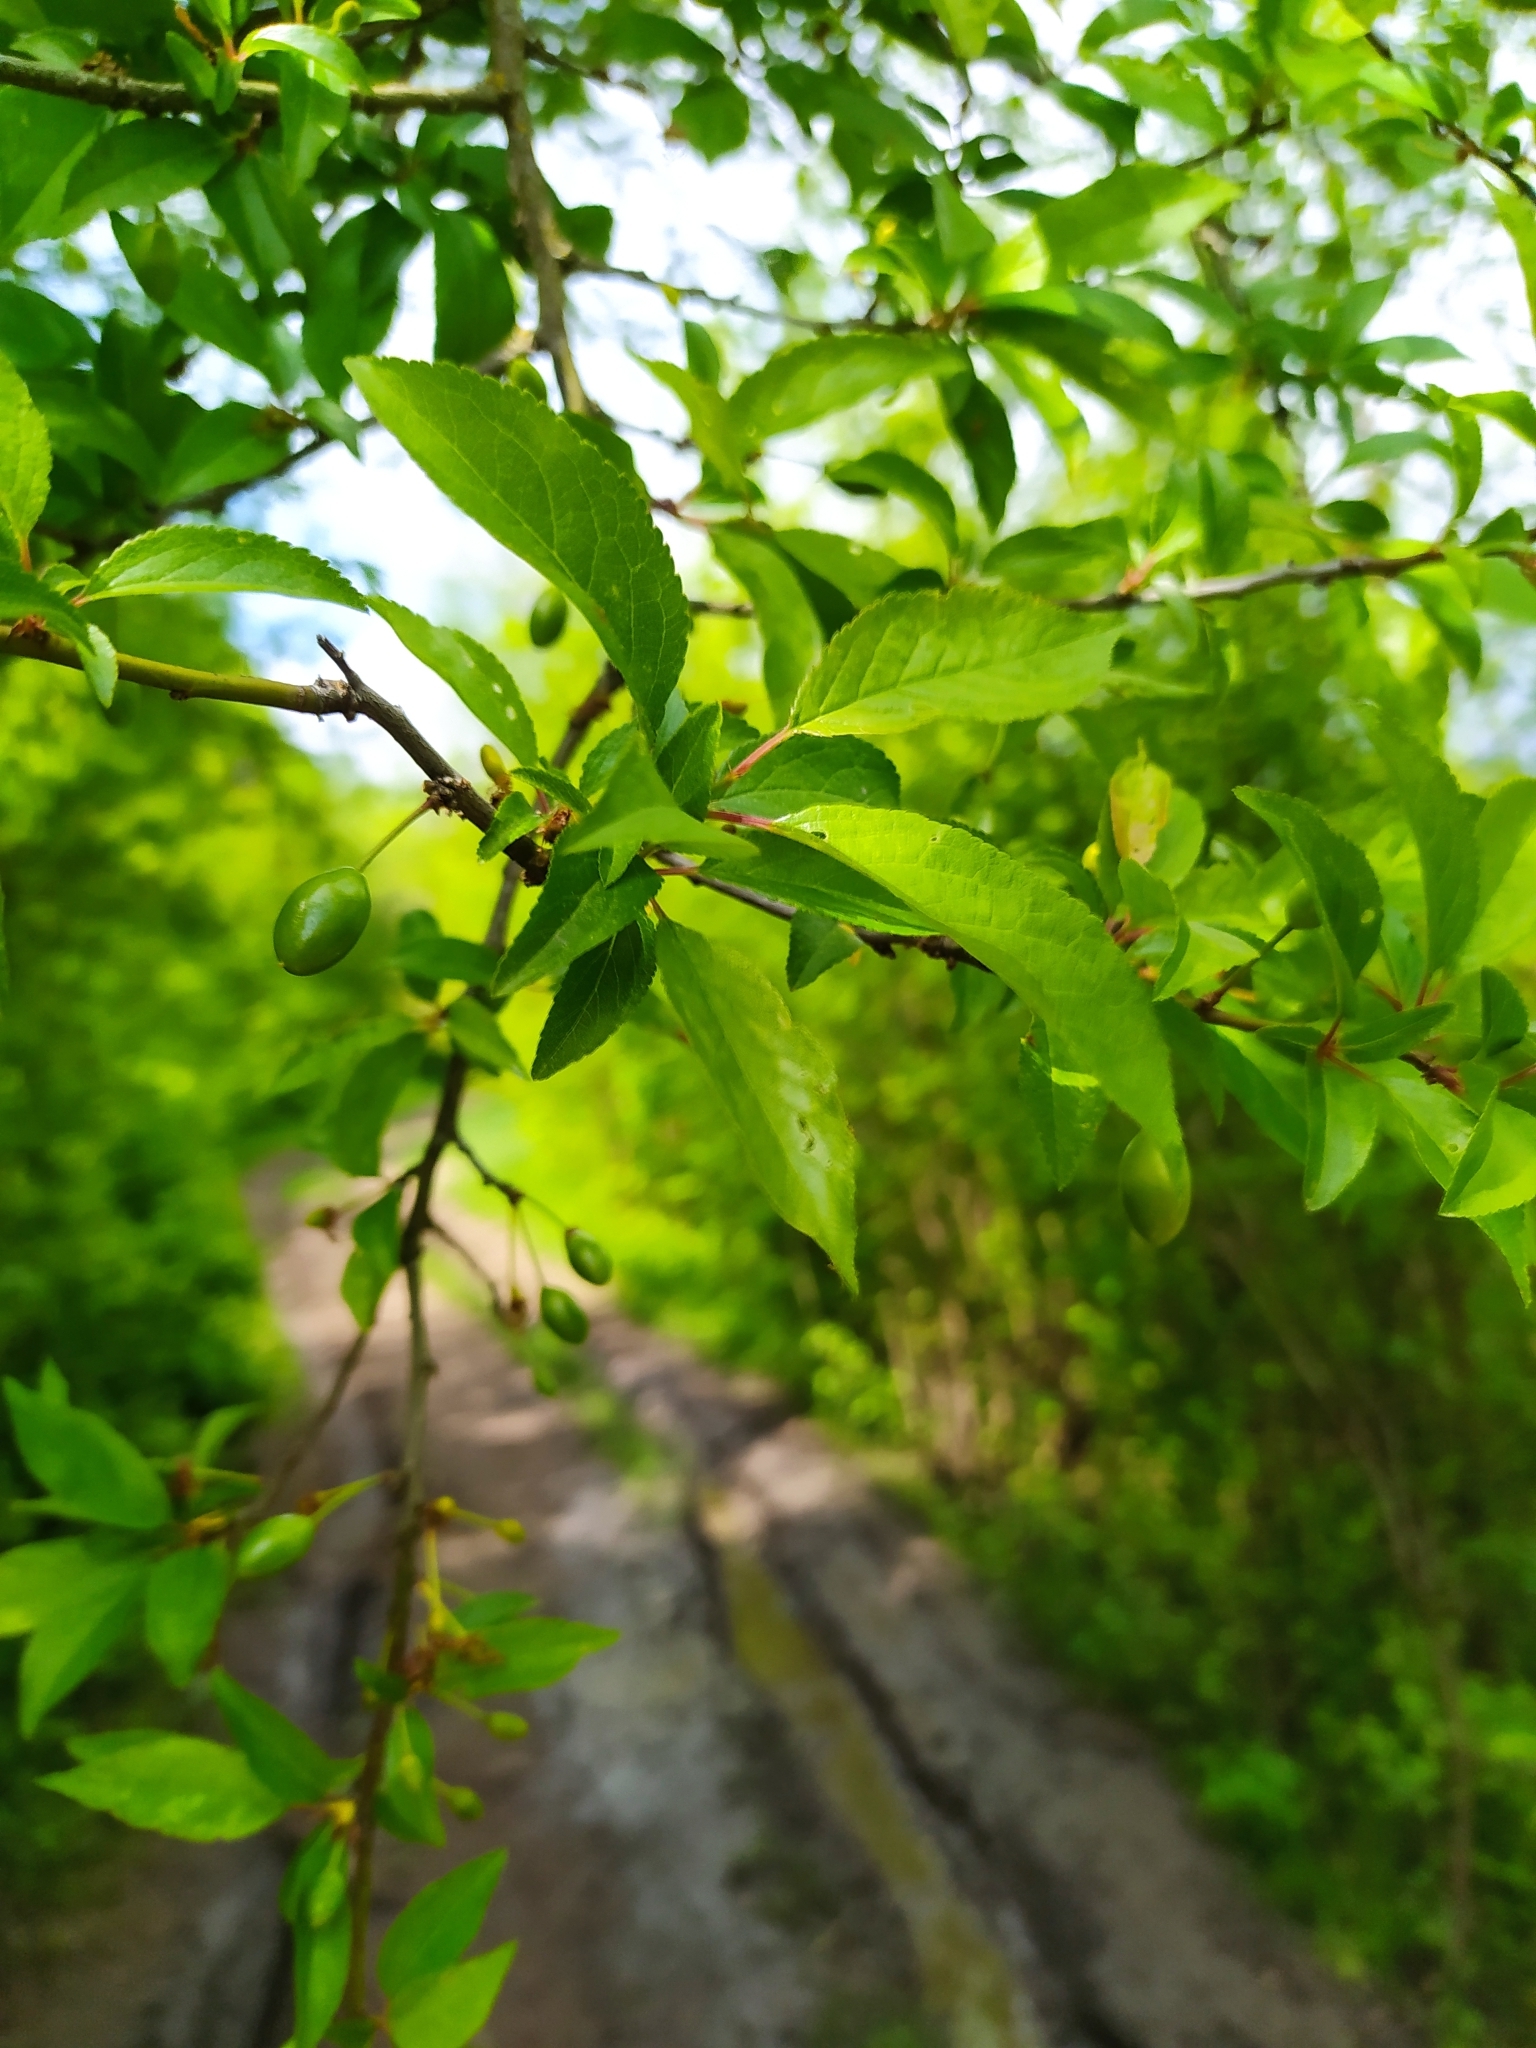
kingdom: Plantae
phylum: Tracheophyta
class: Magnoliopsida
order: Rosales
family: Rosaceae
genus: Prunus
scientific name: Prunus cerasifera
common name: Cherry plum
